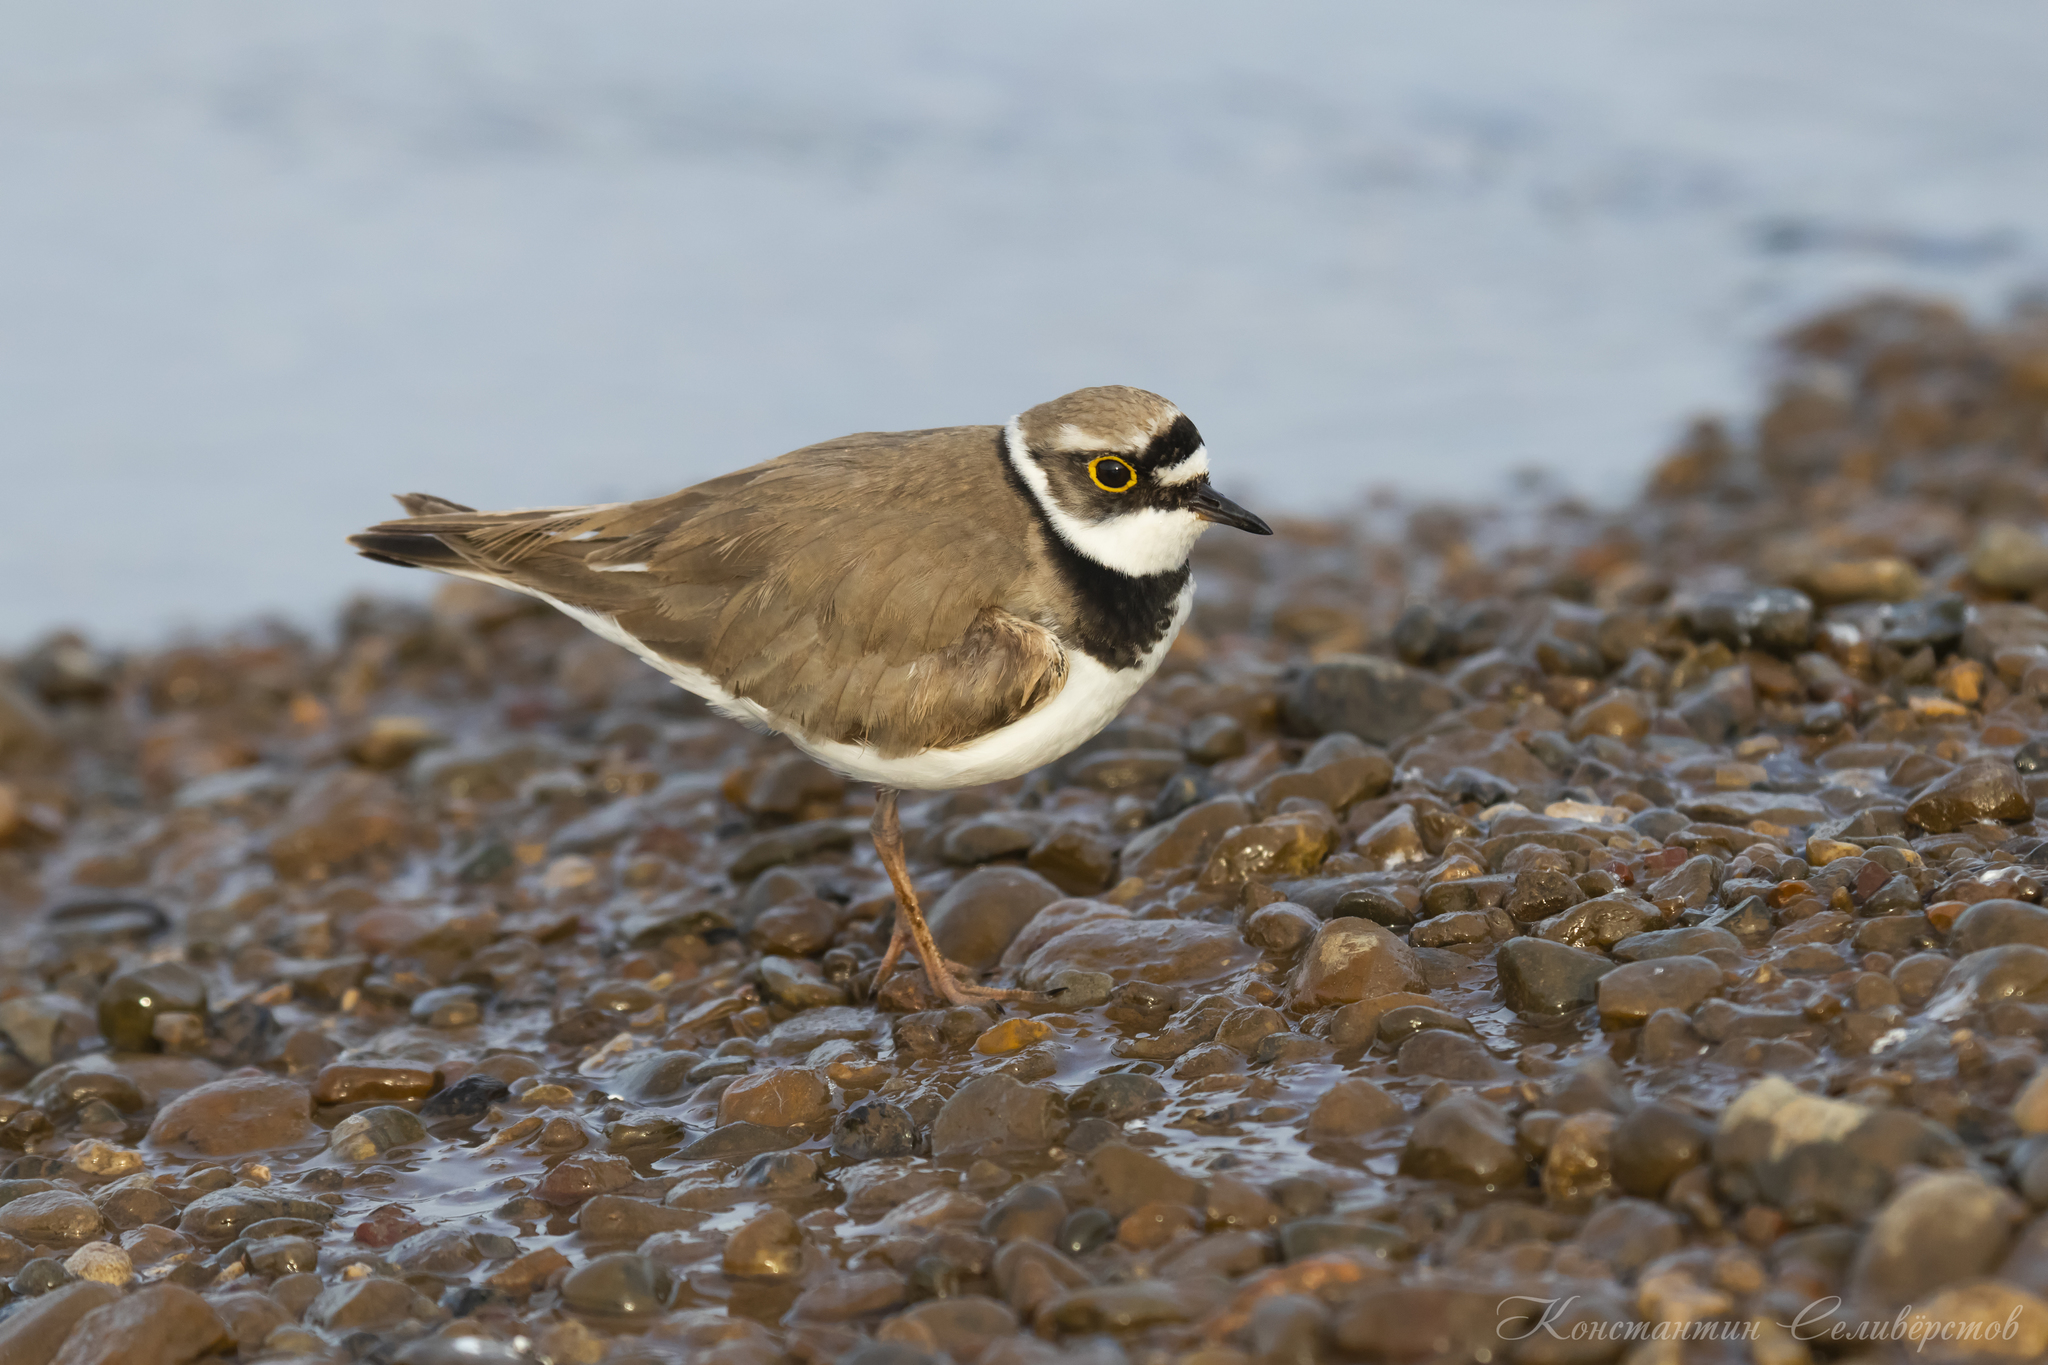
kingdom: Animalia
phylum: Chordata
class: Aves
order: Charadriiformes
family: Charadriidae
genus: Charadrius
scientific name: Charadrius dubius
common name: Little ringed plover
